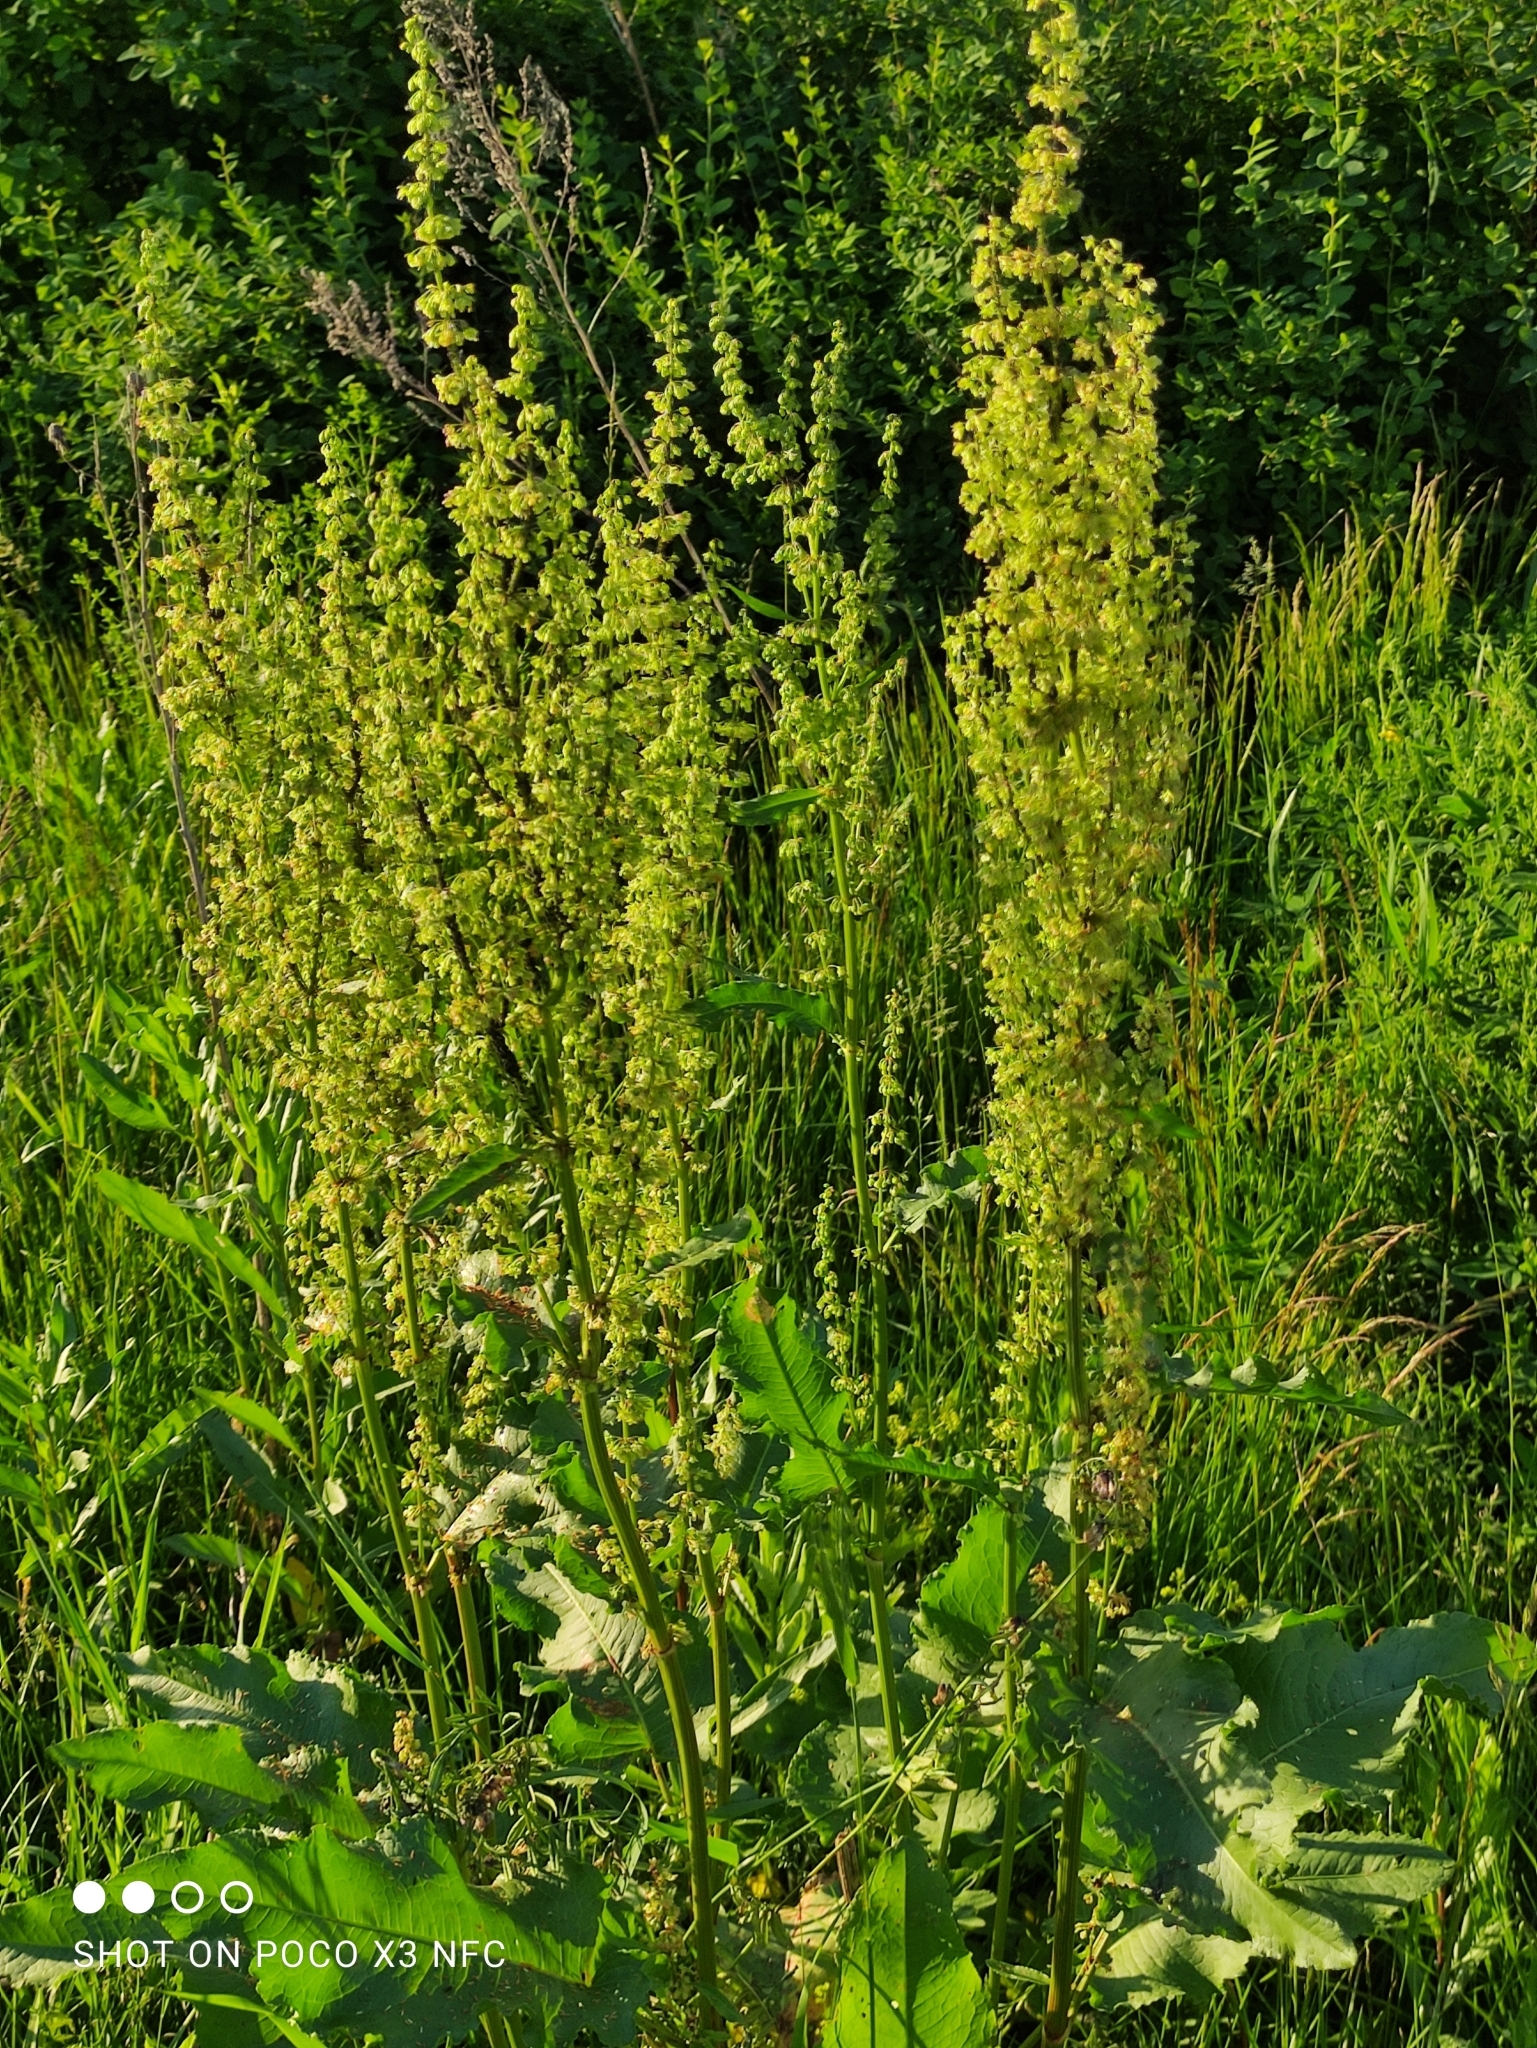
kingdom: Plantae
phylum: Tracheophyta
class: Magnoliopsida
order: Caryophyllales
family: Polygonaceae
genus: Rumex
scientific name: Rumex confertus
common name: Russian dock
